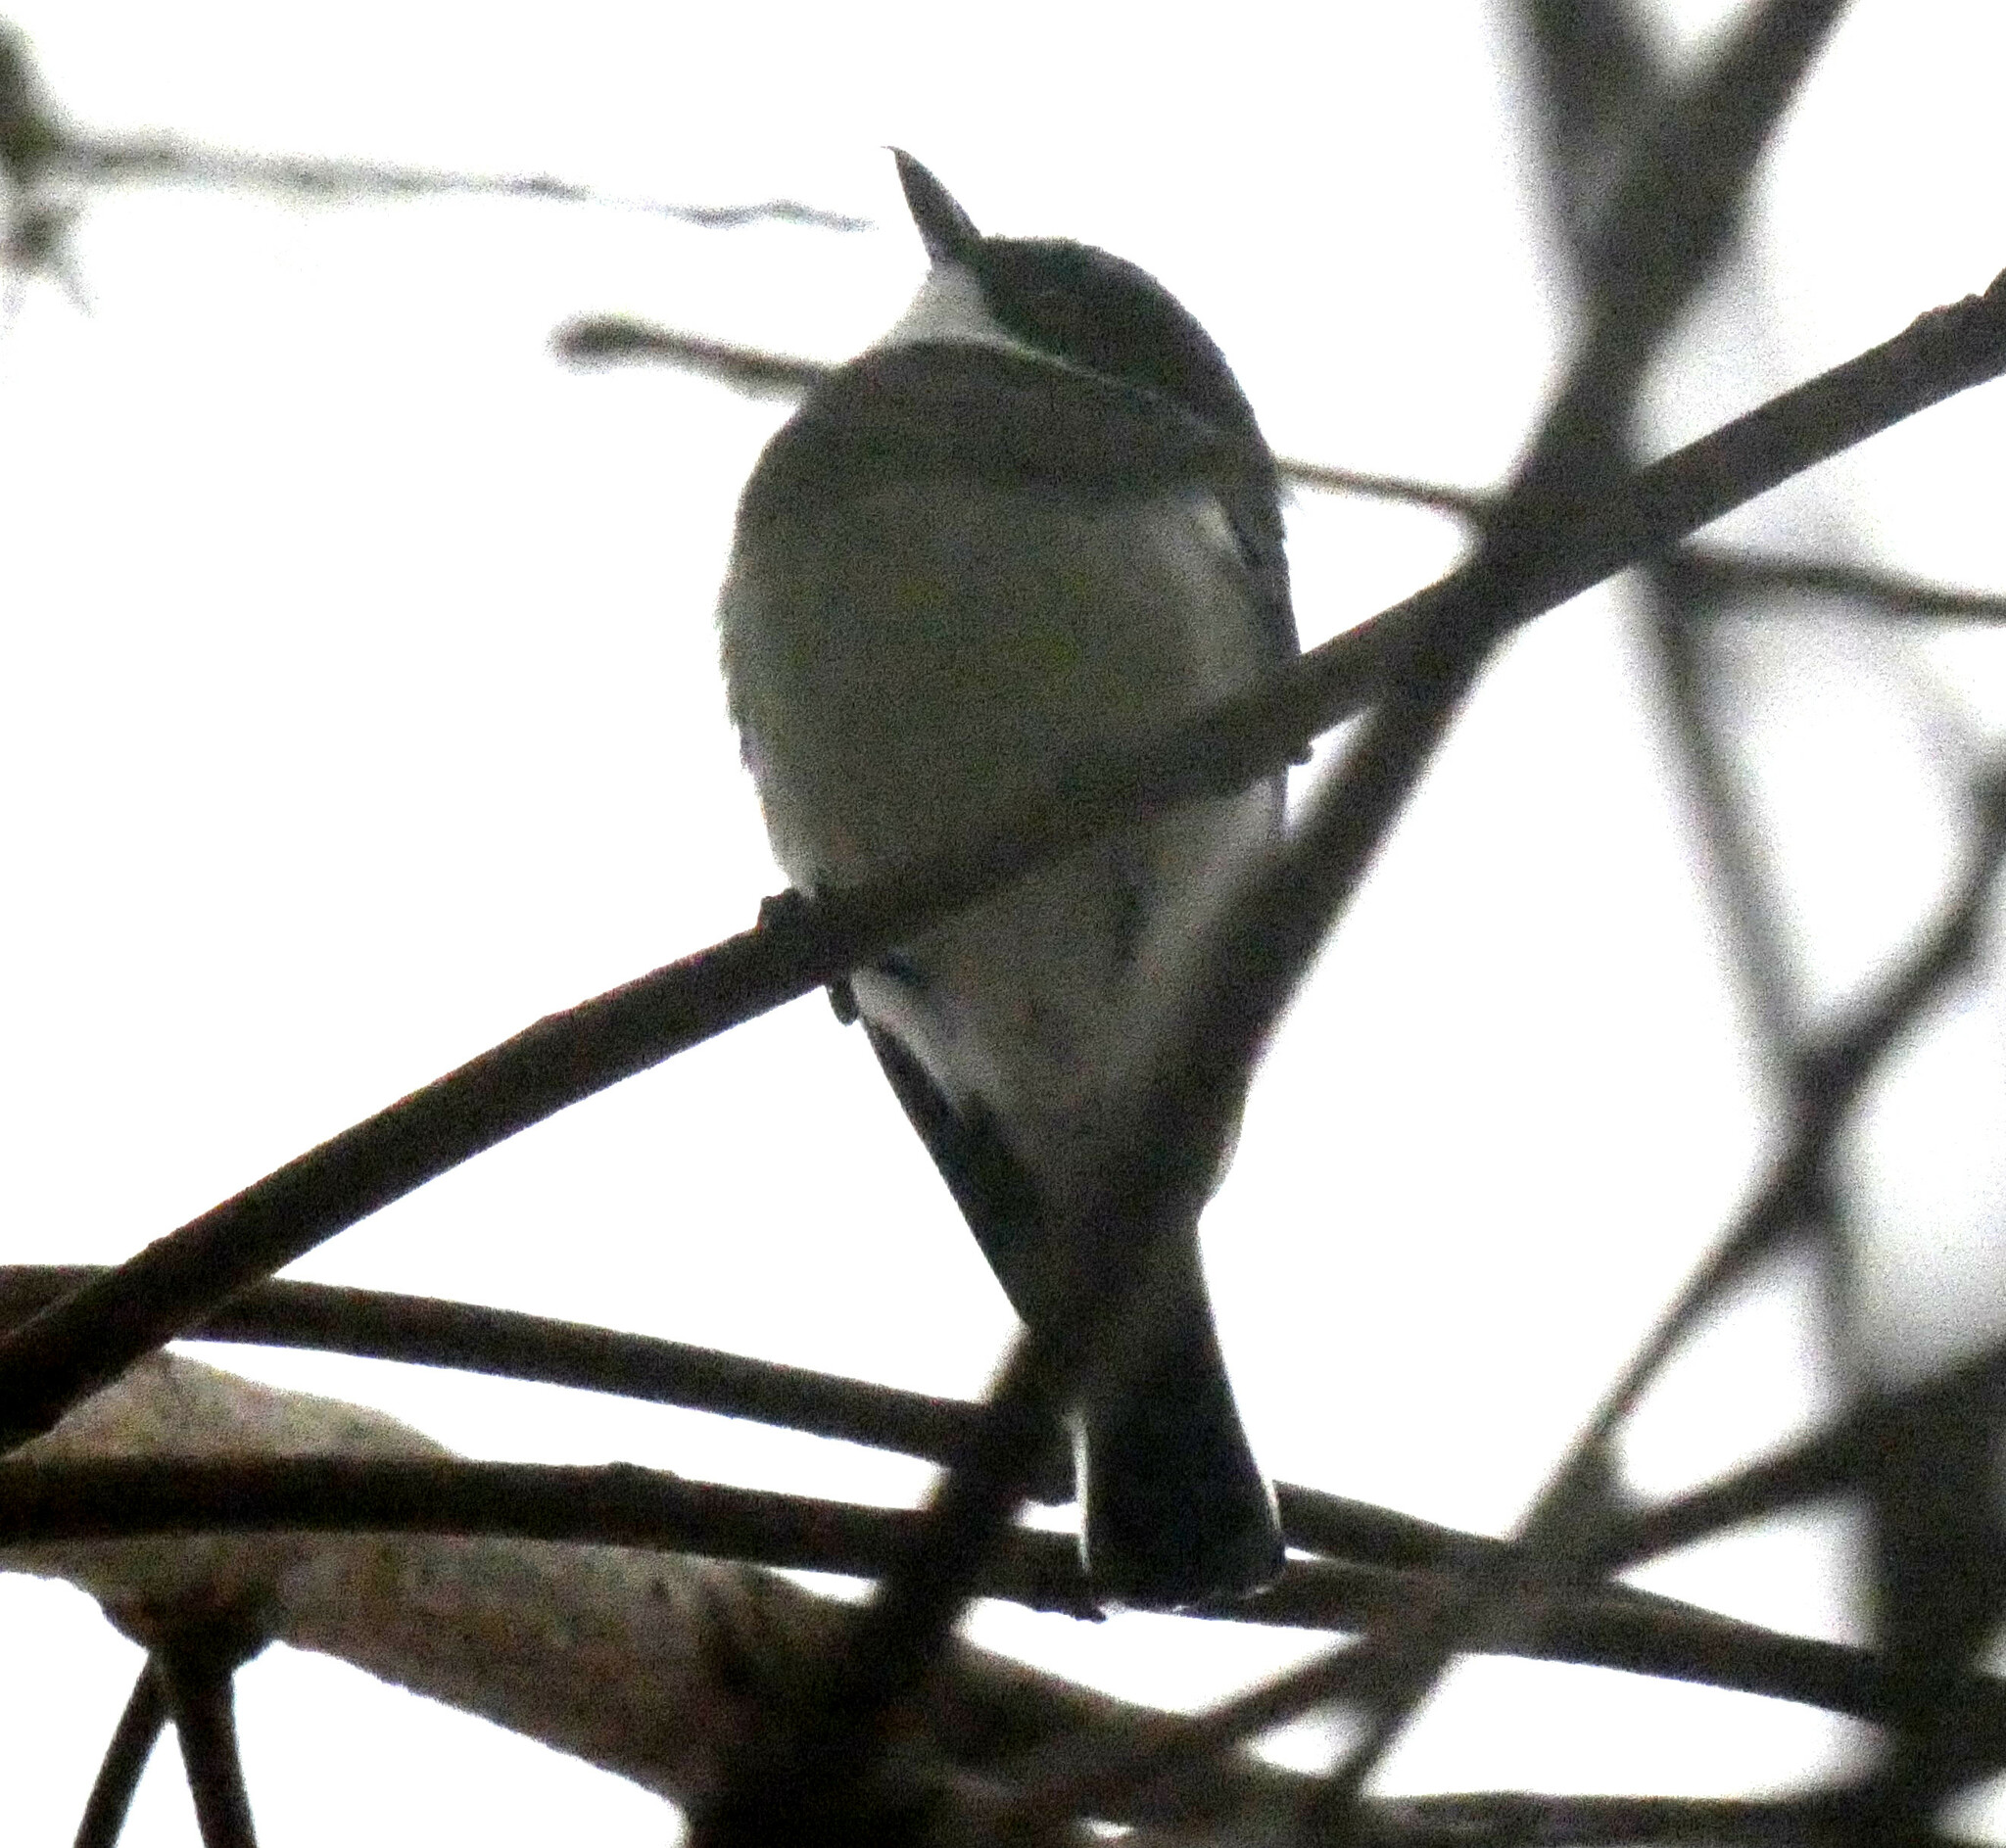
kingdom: Animalia
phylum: Chordata
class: Aves
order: Passeriformes
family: Platysteiridae
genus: Batis
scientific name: Batis molitor
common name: Chinspot batis
